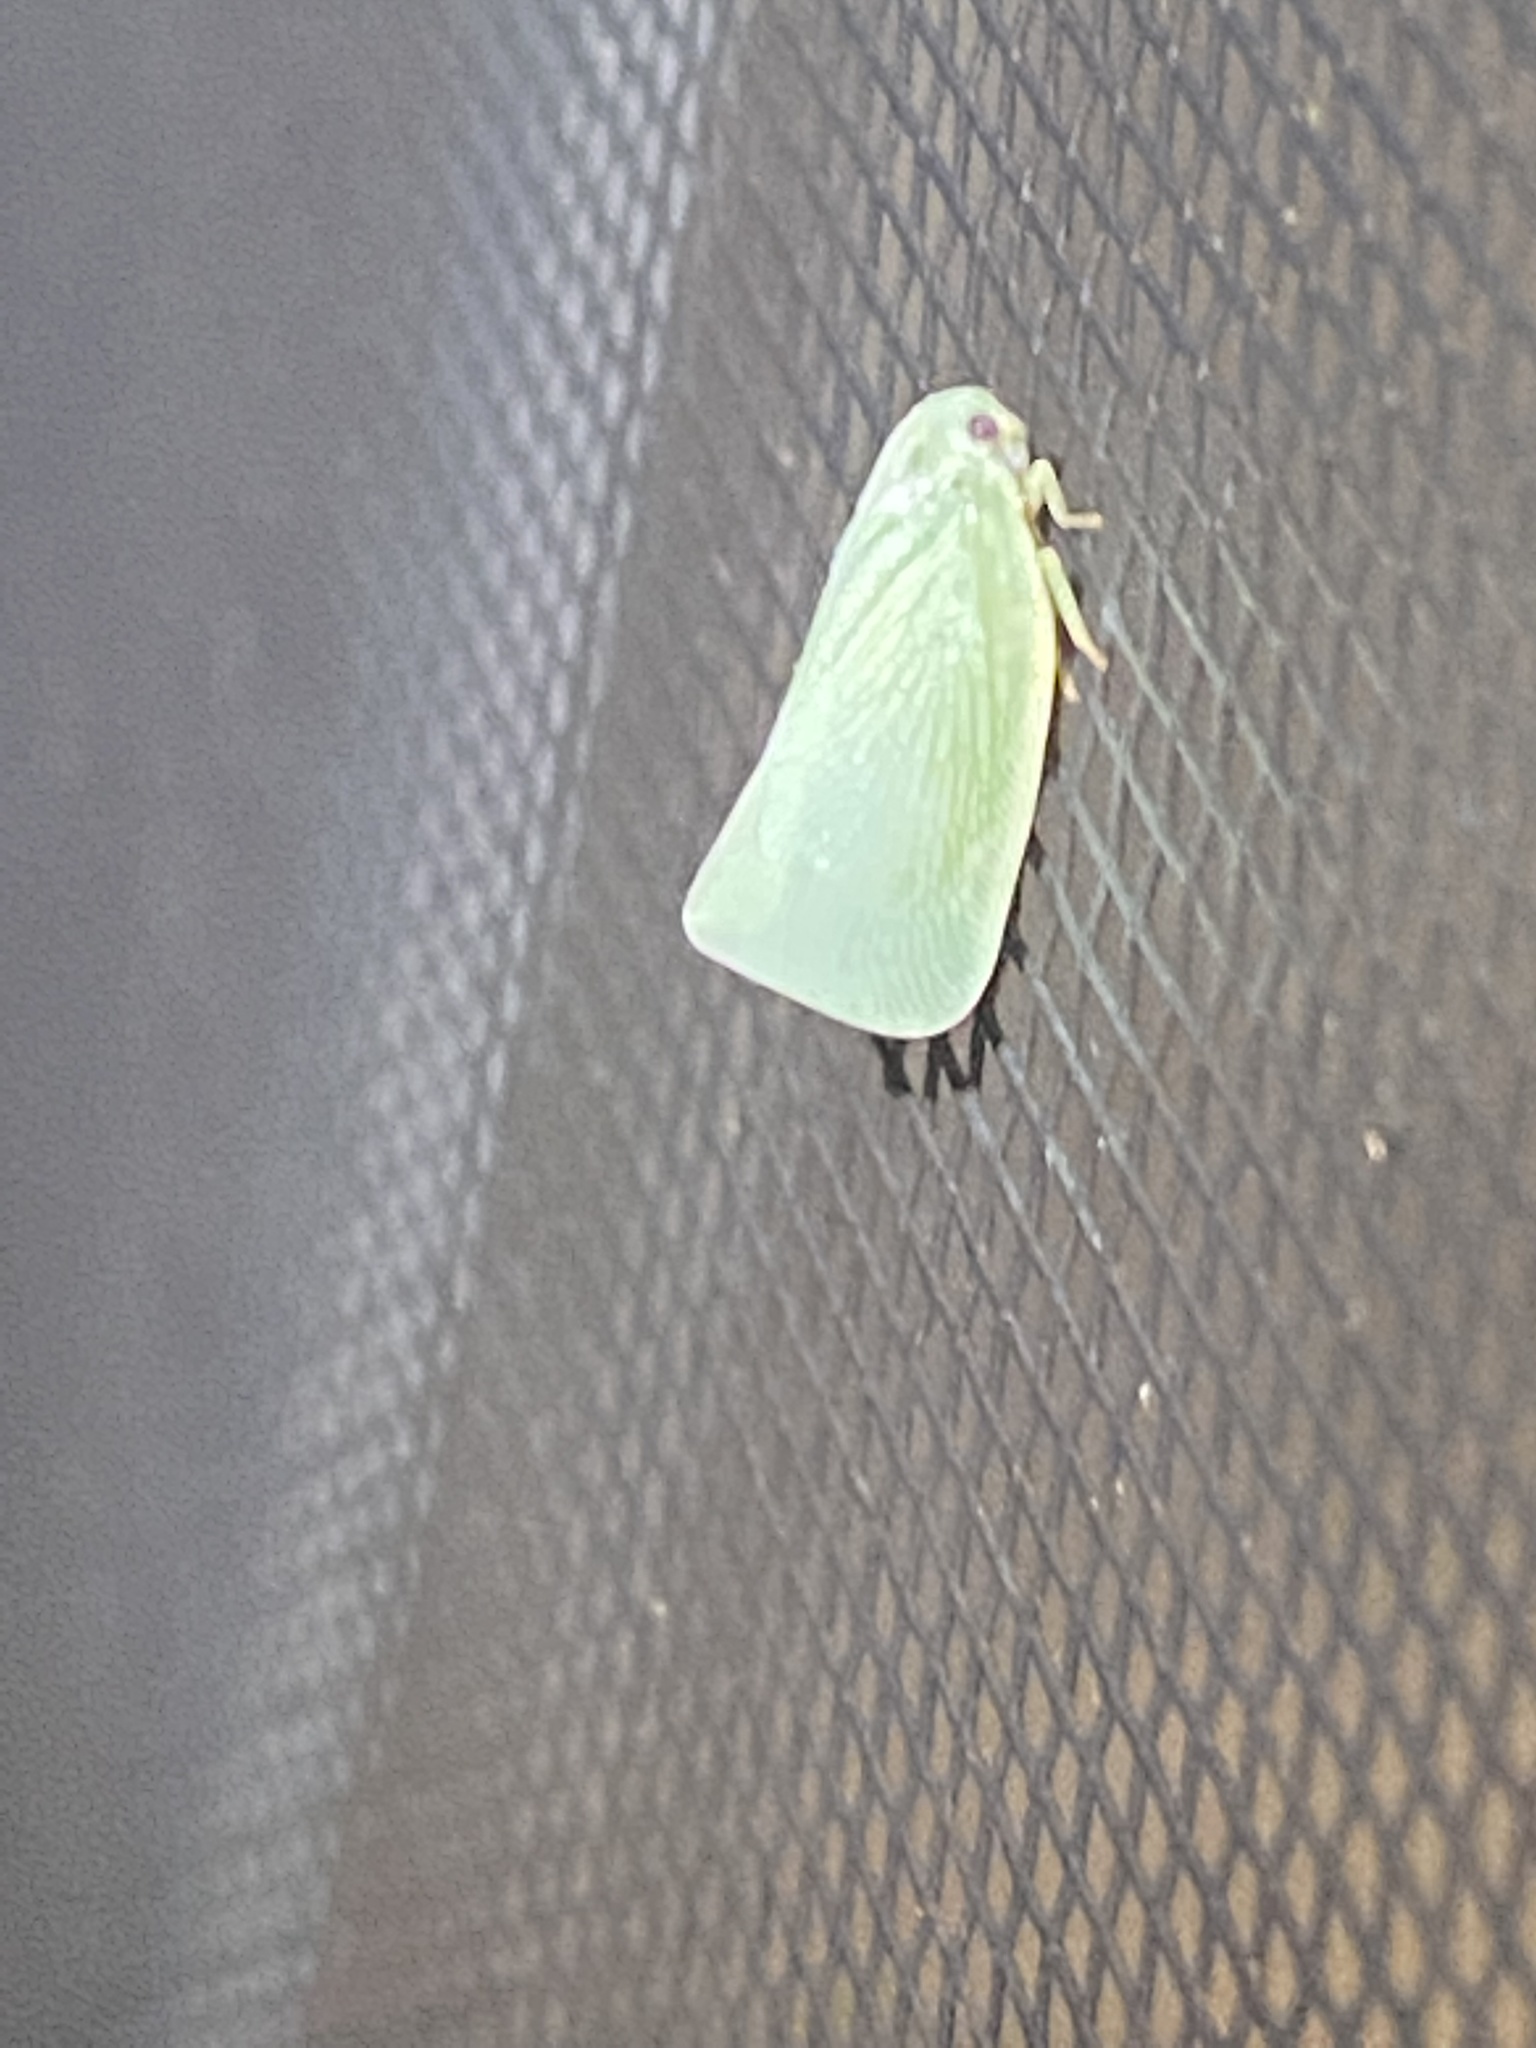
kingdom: Animalia
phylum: Arthropoda
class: Insecta
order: Hemiptera
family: Flatidae
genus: Flatormenis
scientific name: Flatormenis proxima
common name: Northern flatid planthopper
